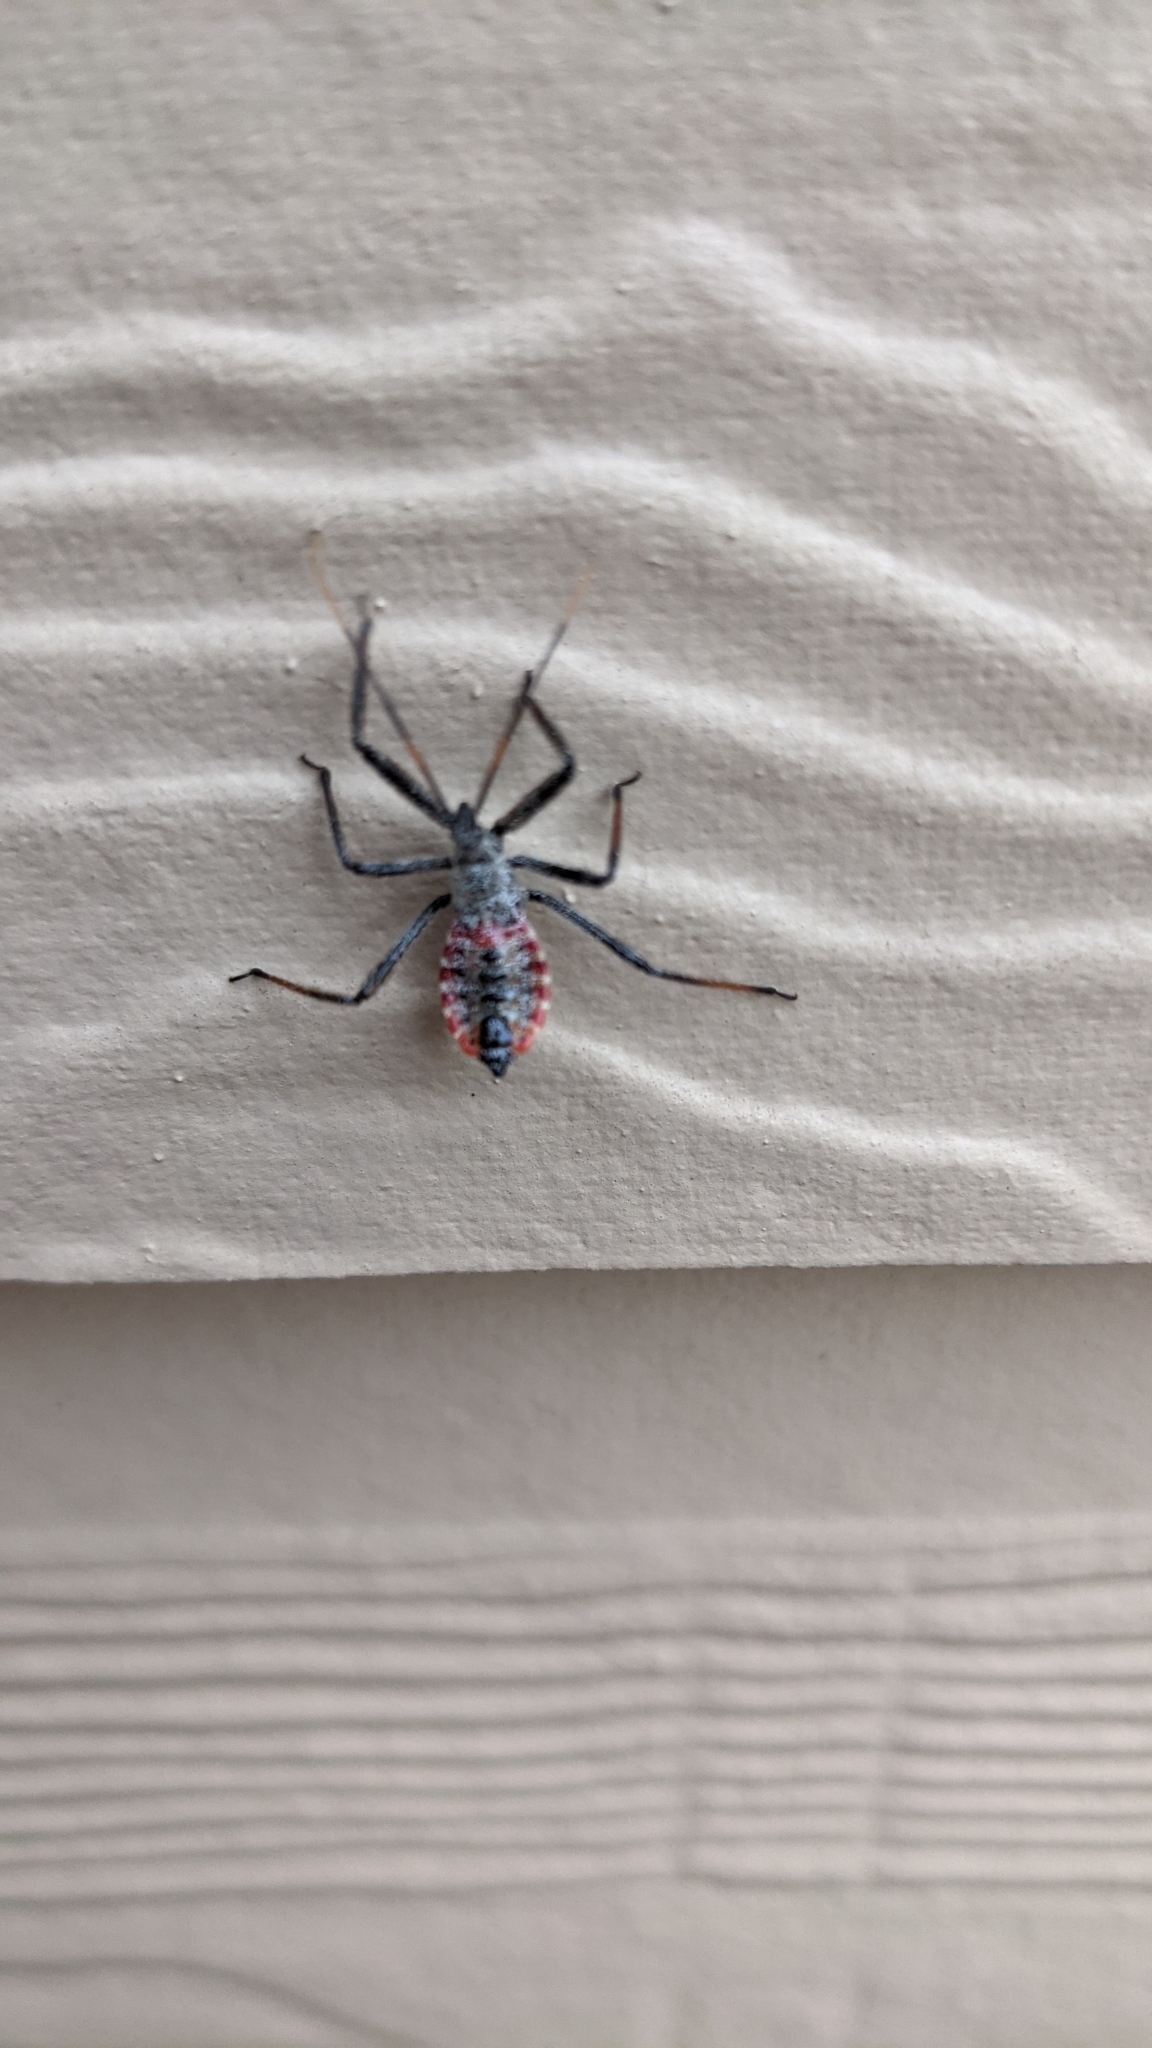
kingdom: Animalia
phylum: Arthropoda
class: Insecta
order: Hemiptera
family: Reduviidae
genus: Arilus
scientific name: Arilus cristatus
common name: North american wheel bug
